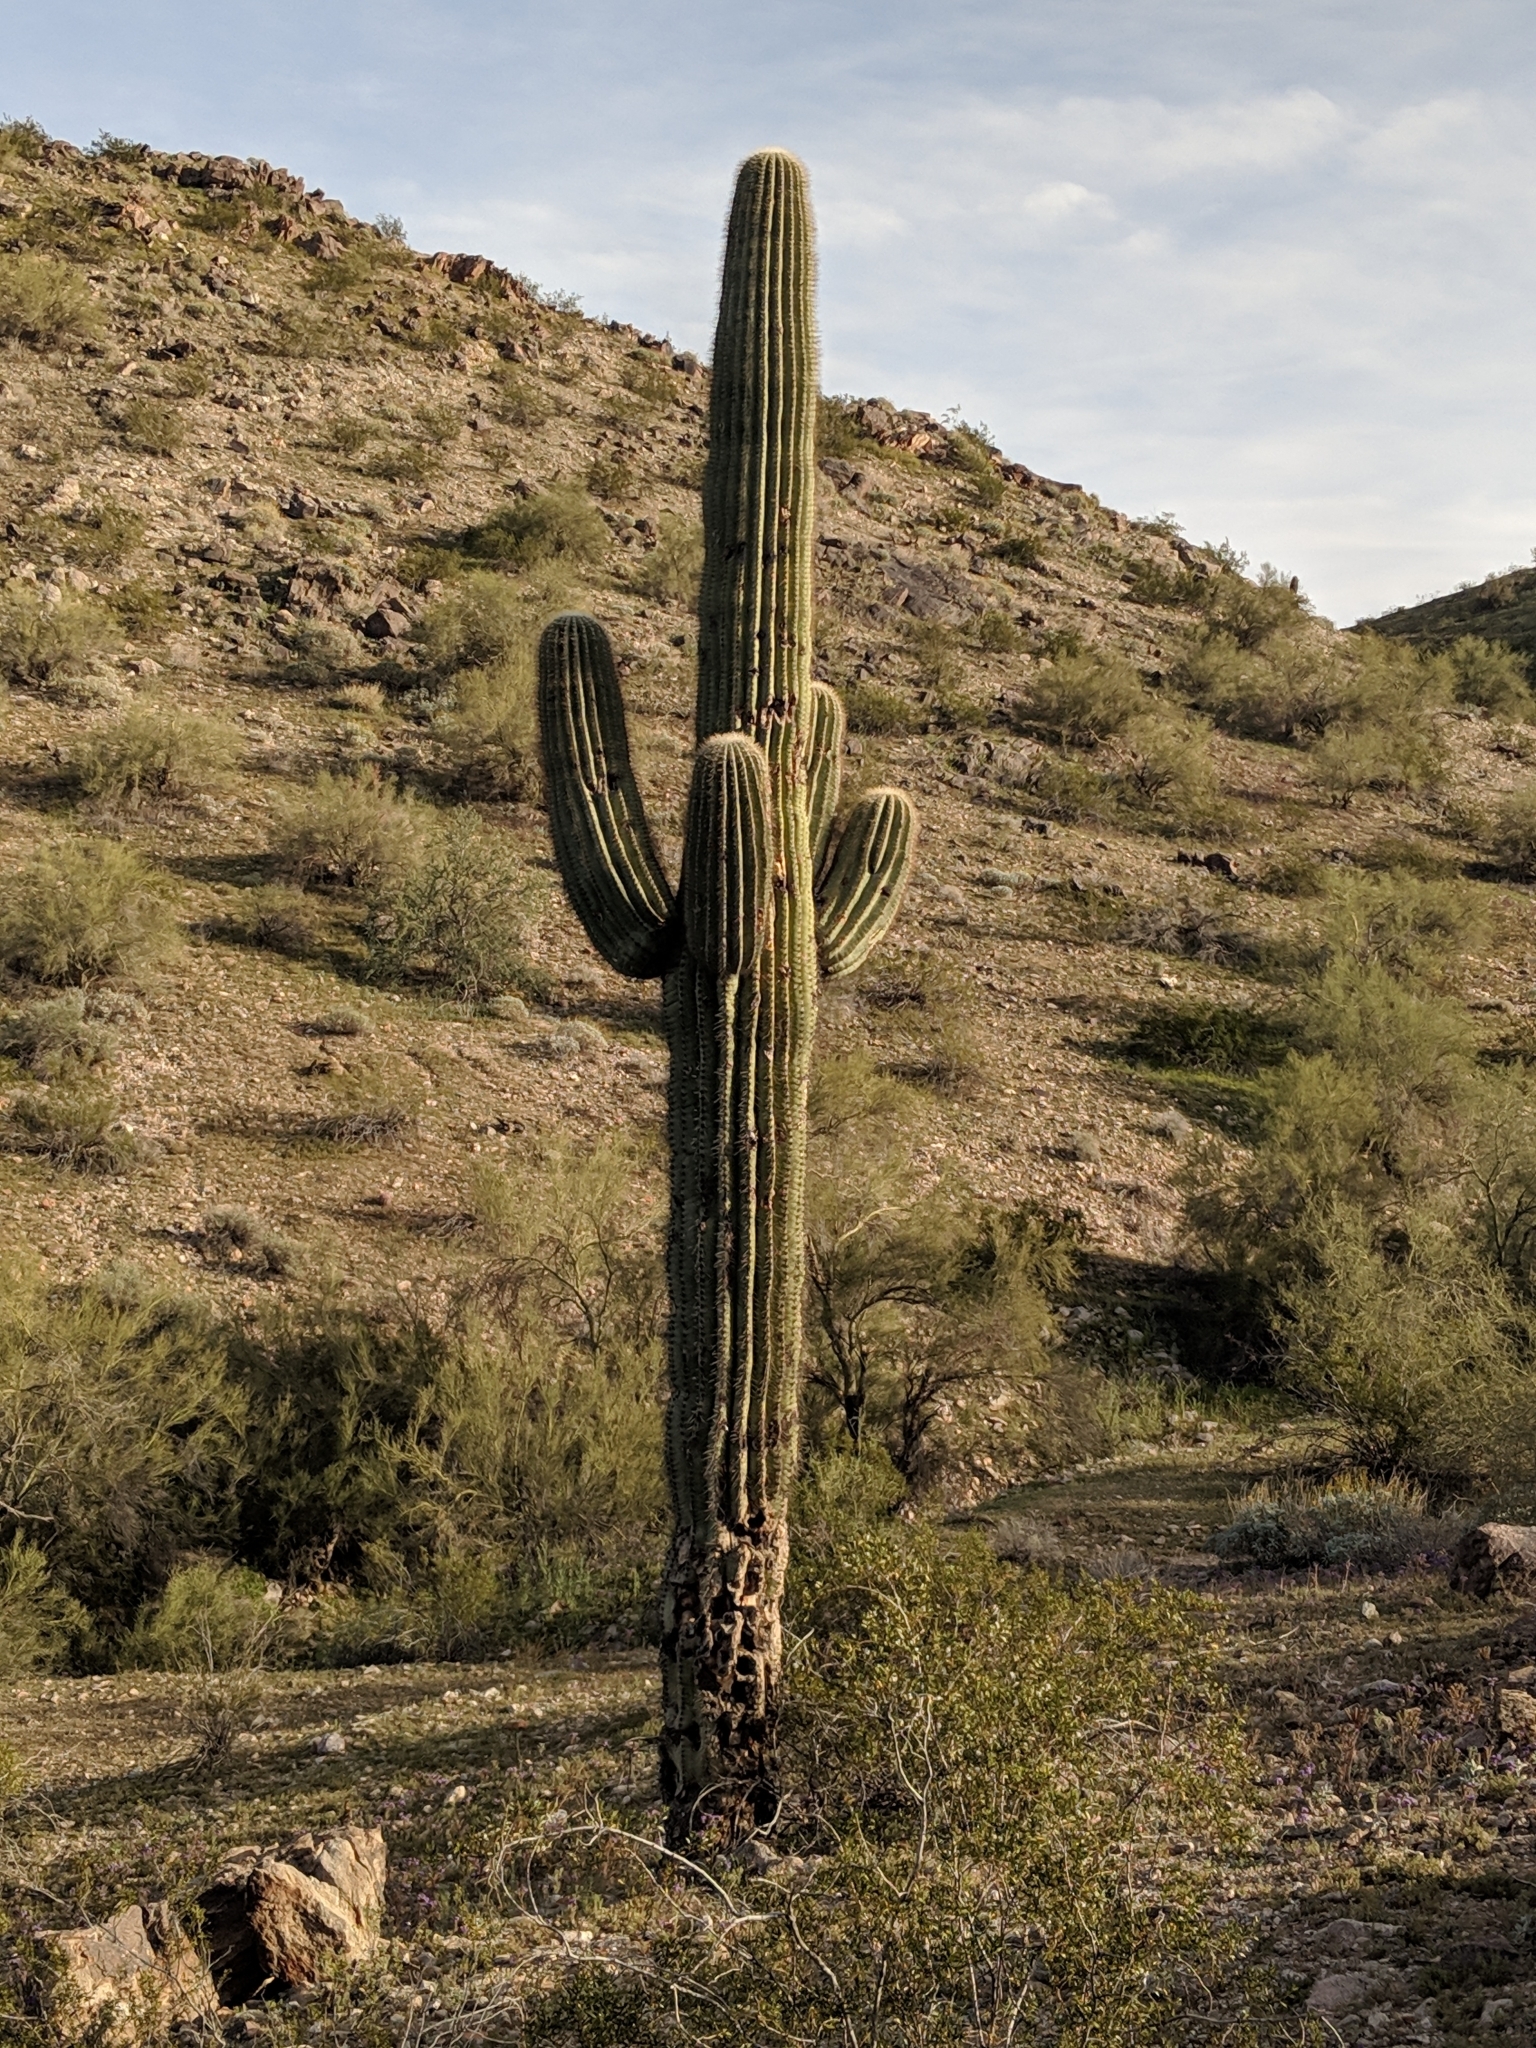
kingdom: Plantae
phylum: Tracheophyta
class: Magnoliopsida
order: Caryophyllales
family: Cactaceae
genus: Carnegiea
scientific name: Carnegiea gigantea
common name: Saguaro
